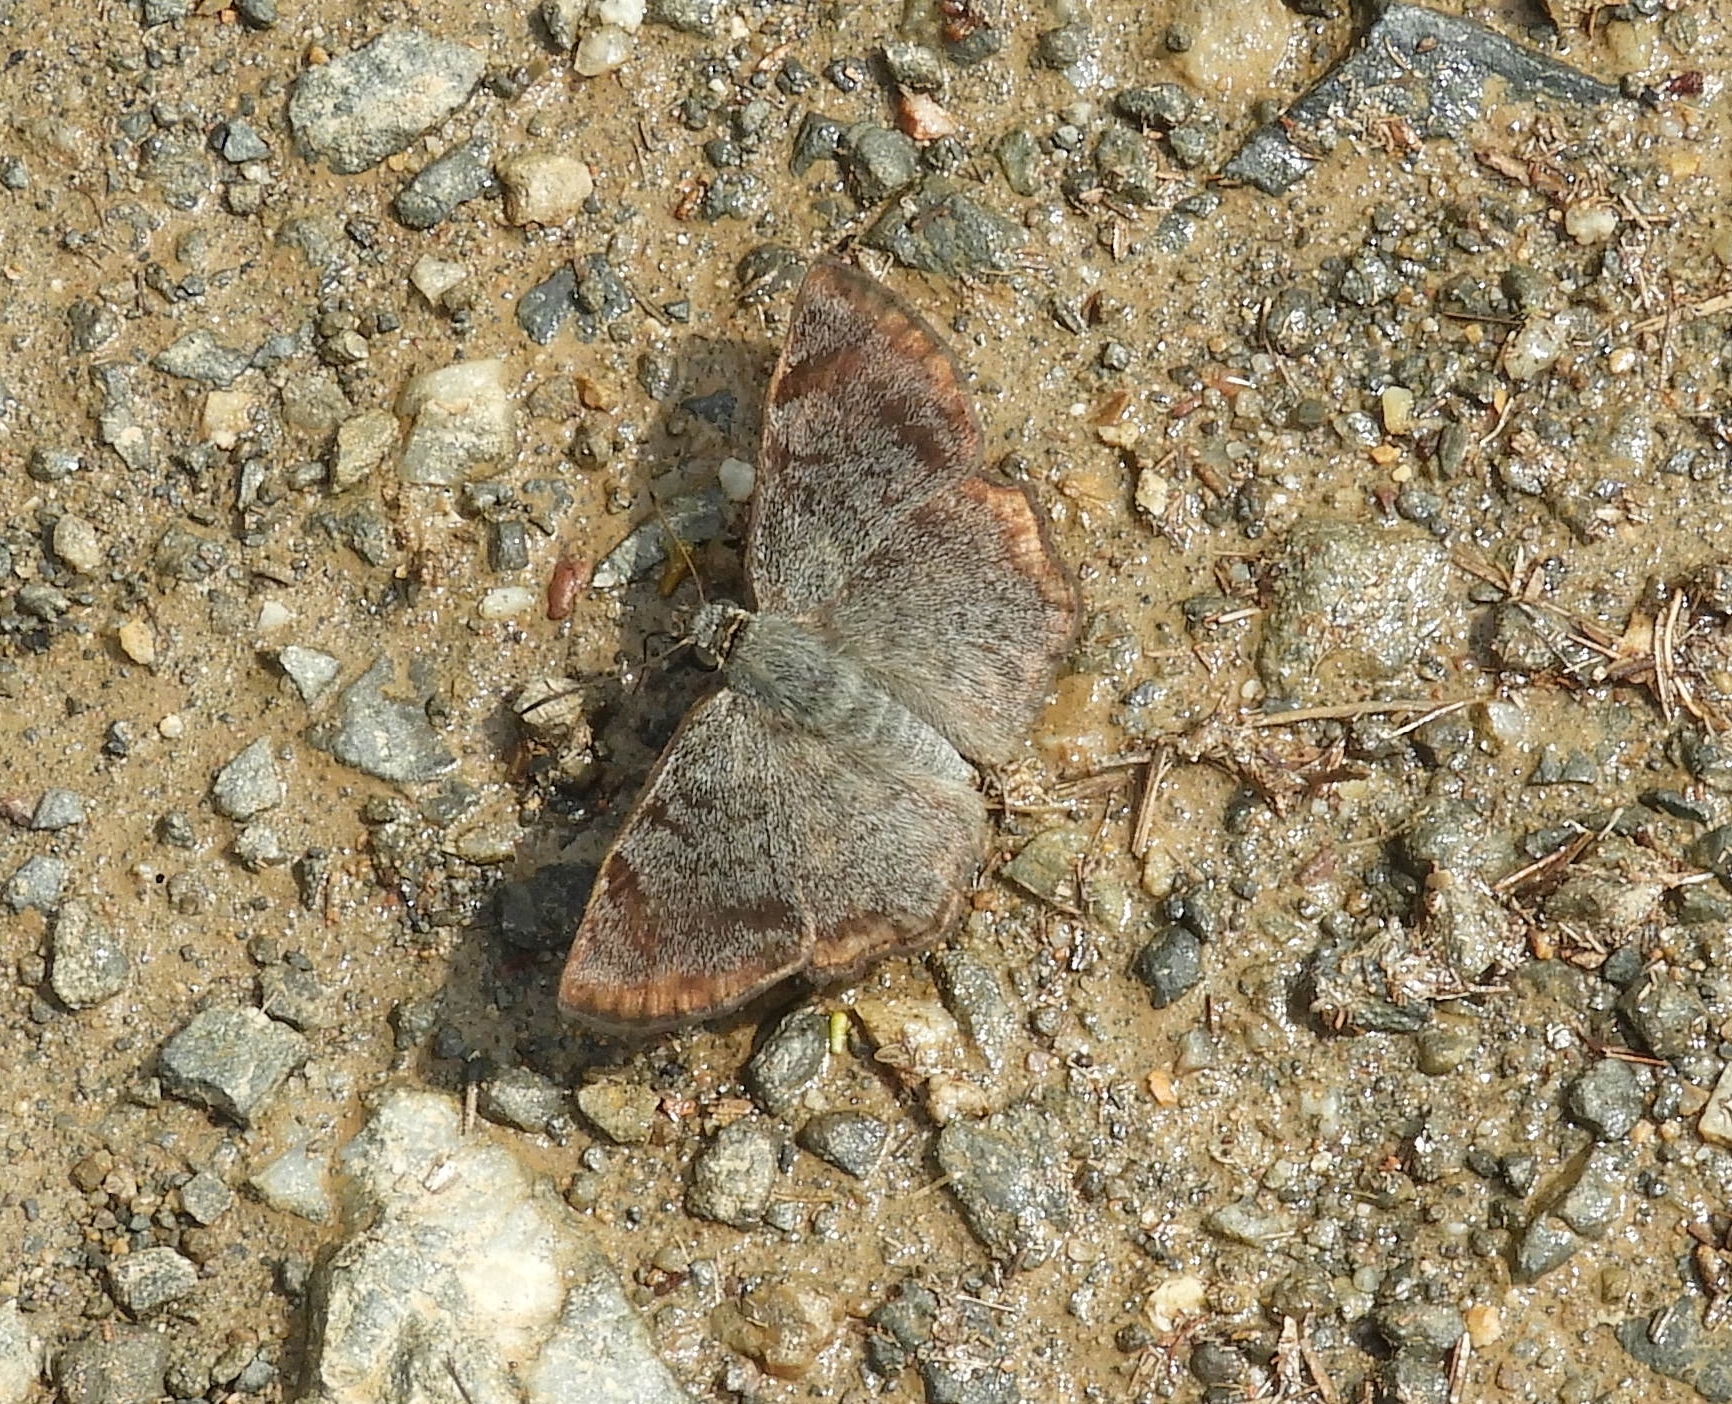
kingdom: Animalia
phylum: Arthropoda
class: Insecta
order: Lepidoptera
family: Hesperiidae
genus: Antigonus
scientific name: Antigonus erosus
